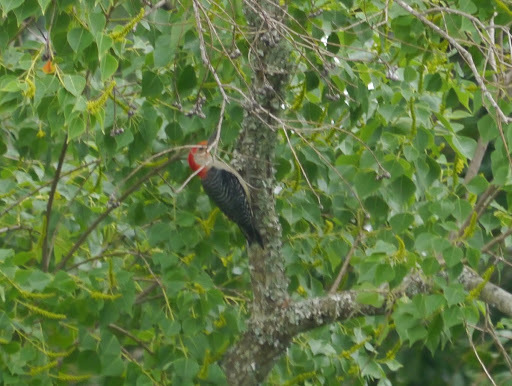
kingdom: Animalia
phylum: Chordata
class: Aves
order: Piciformes
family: Picidae
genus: Melanerpes
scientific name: Melanerpes carolinus
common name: Red-bellied woodpecker
